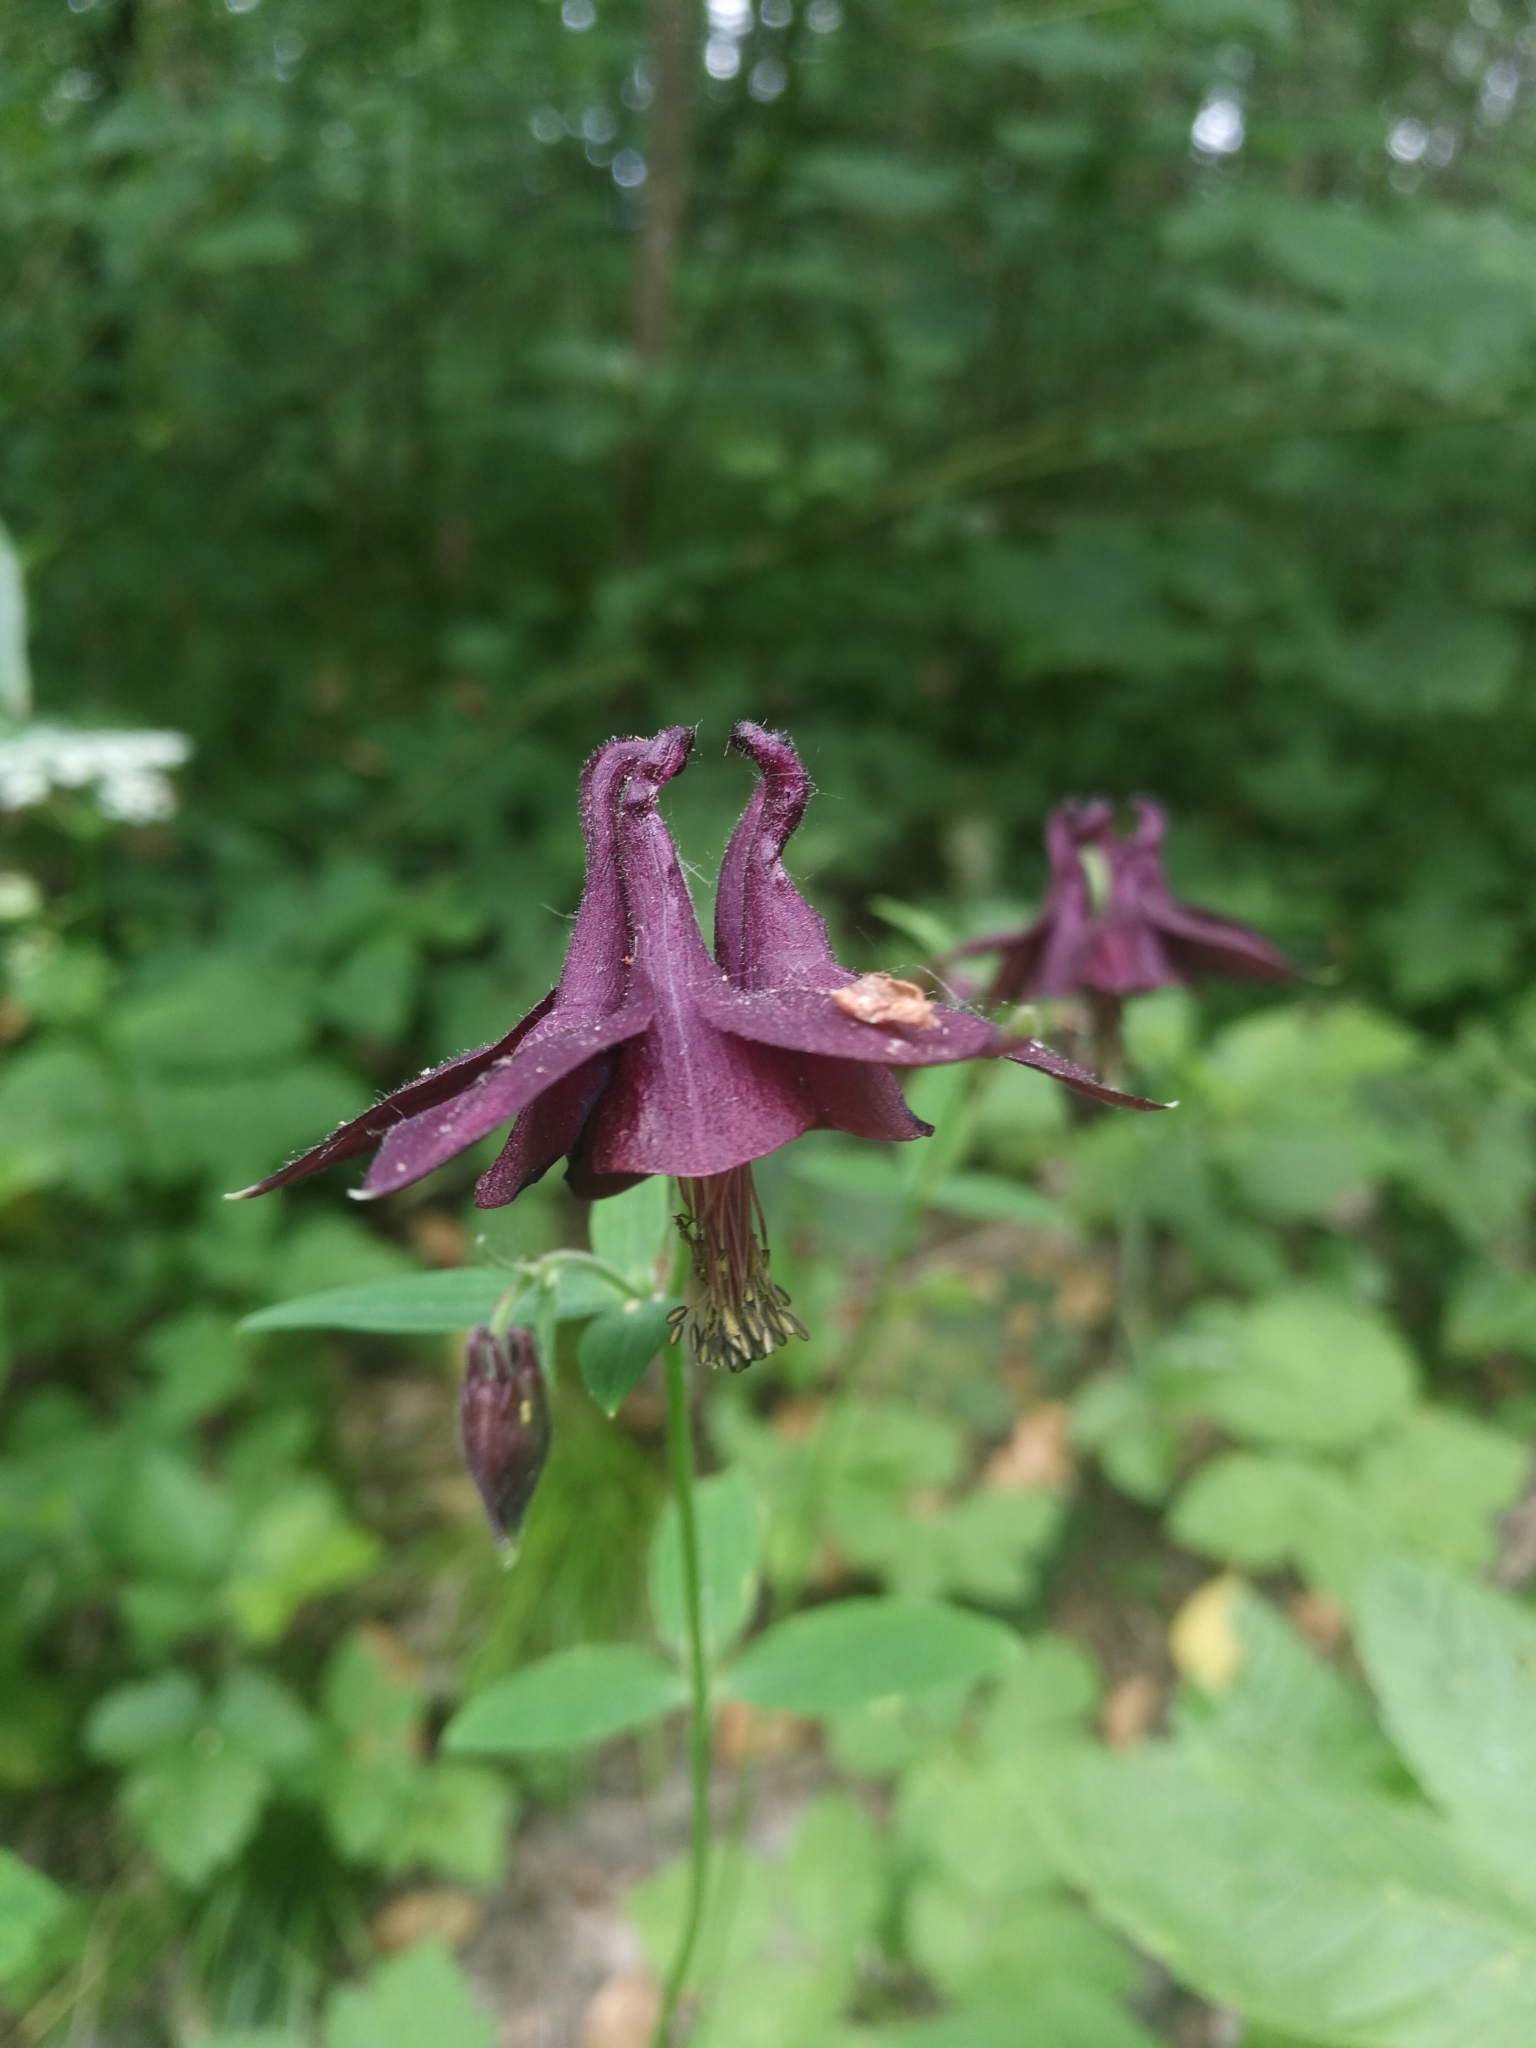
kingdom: Plantae
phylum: Tracheophyta
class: Magnoliopsida
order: Ranunculales
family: Ranunculaceae
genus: Aquilegia
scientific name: Aquilegia atrata
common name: Dark columbine
